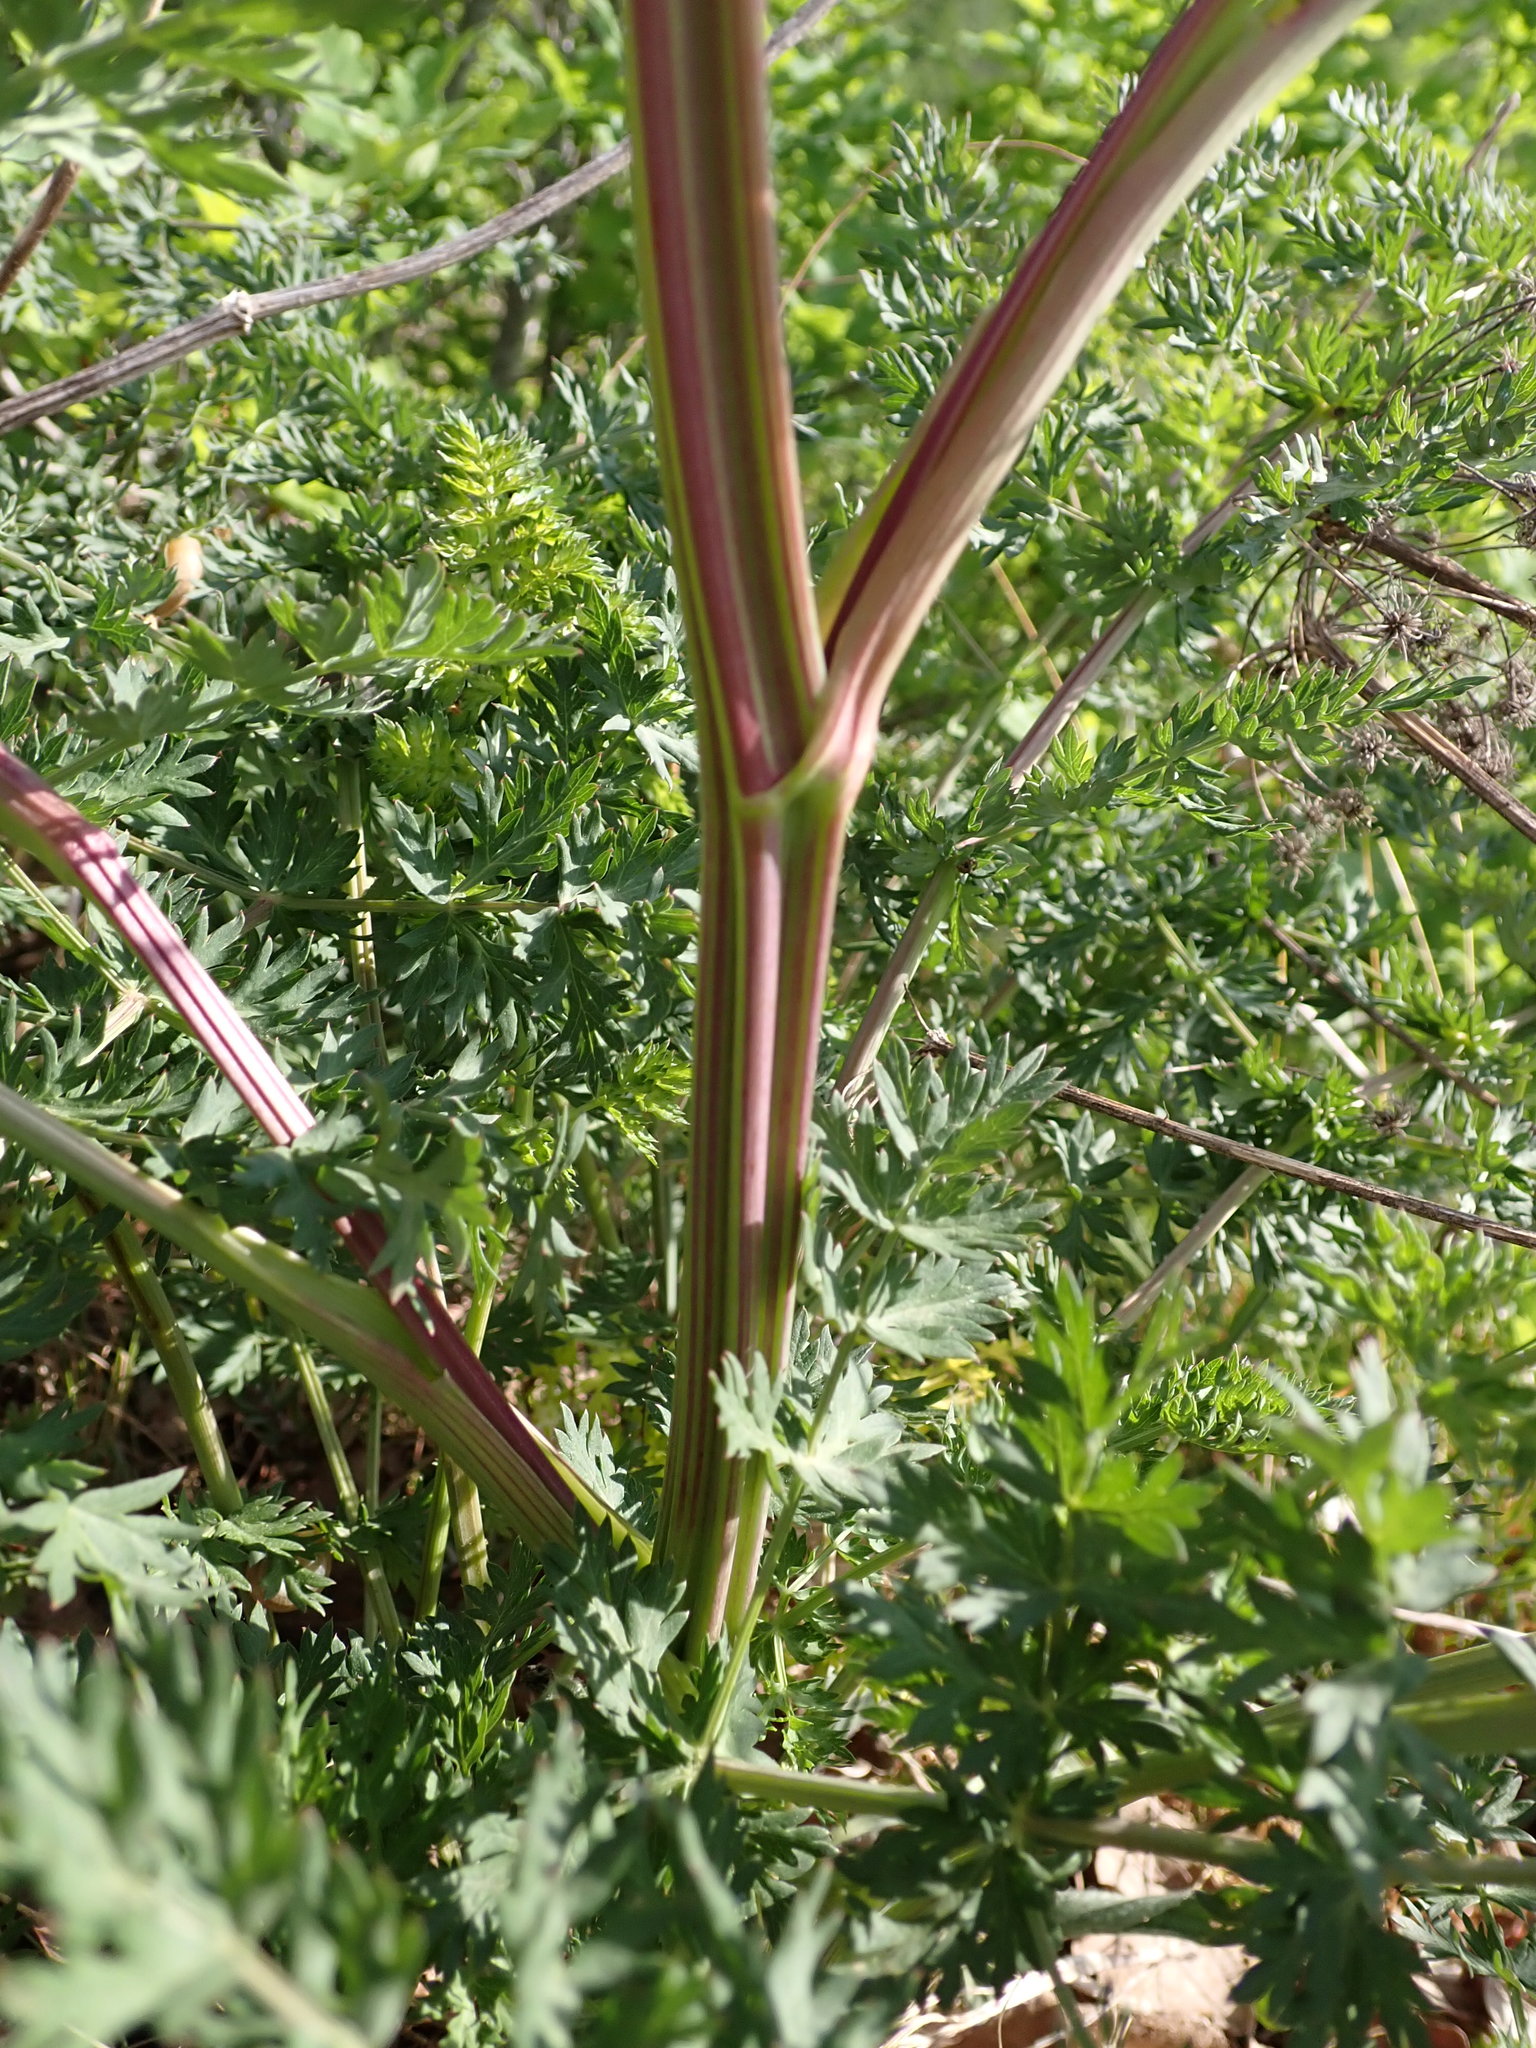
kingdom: Plantae
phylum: Tracheophyta
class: Magnoliopsida
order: Apiales
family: Apiaceae
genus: Seseli
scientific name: Seseli libanotis
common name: Mooncarrot
